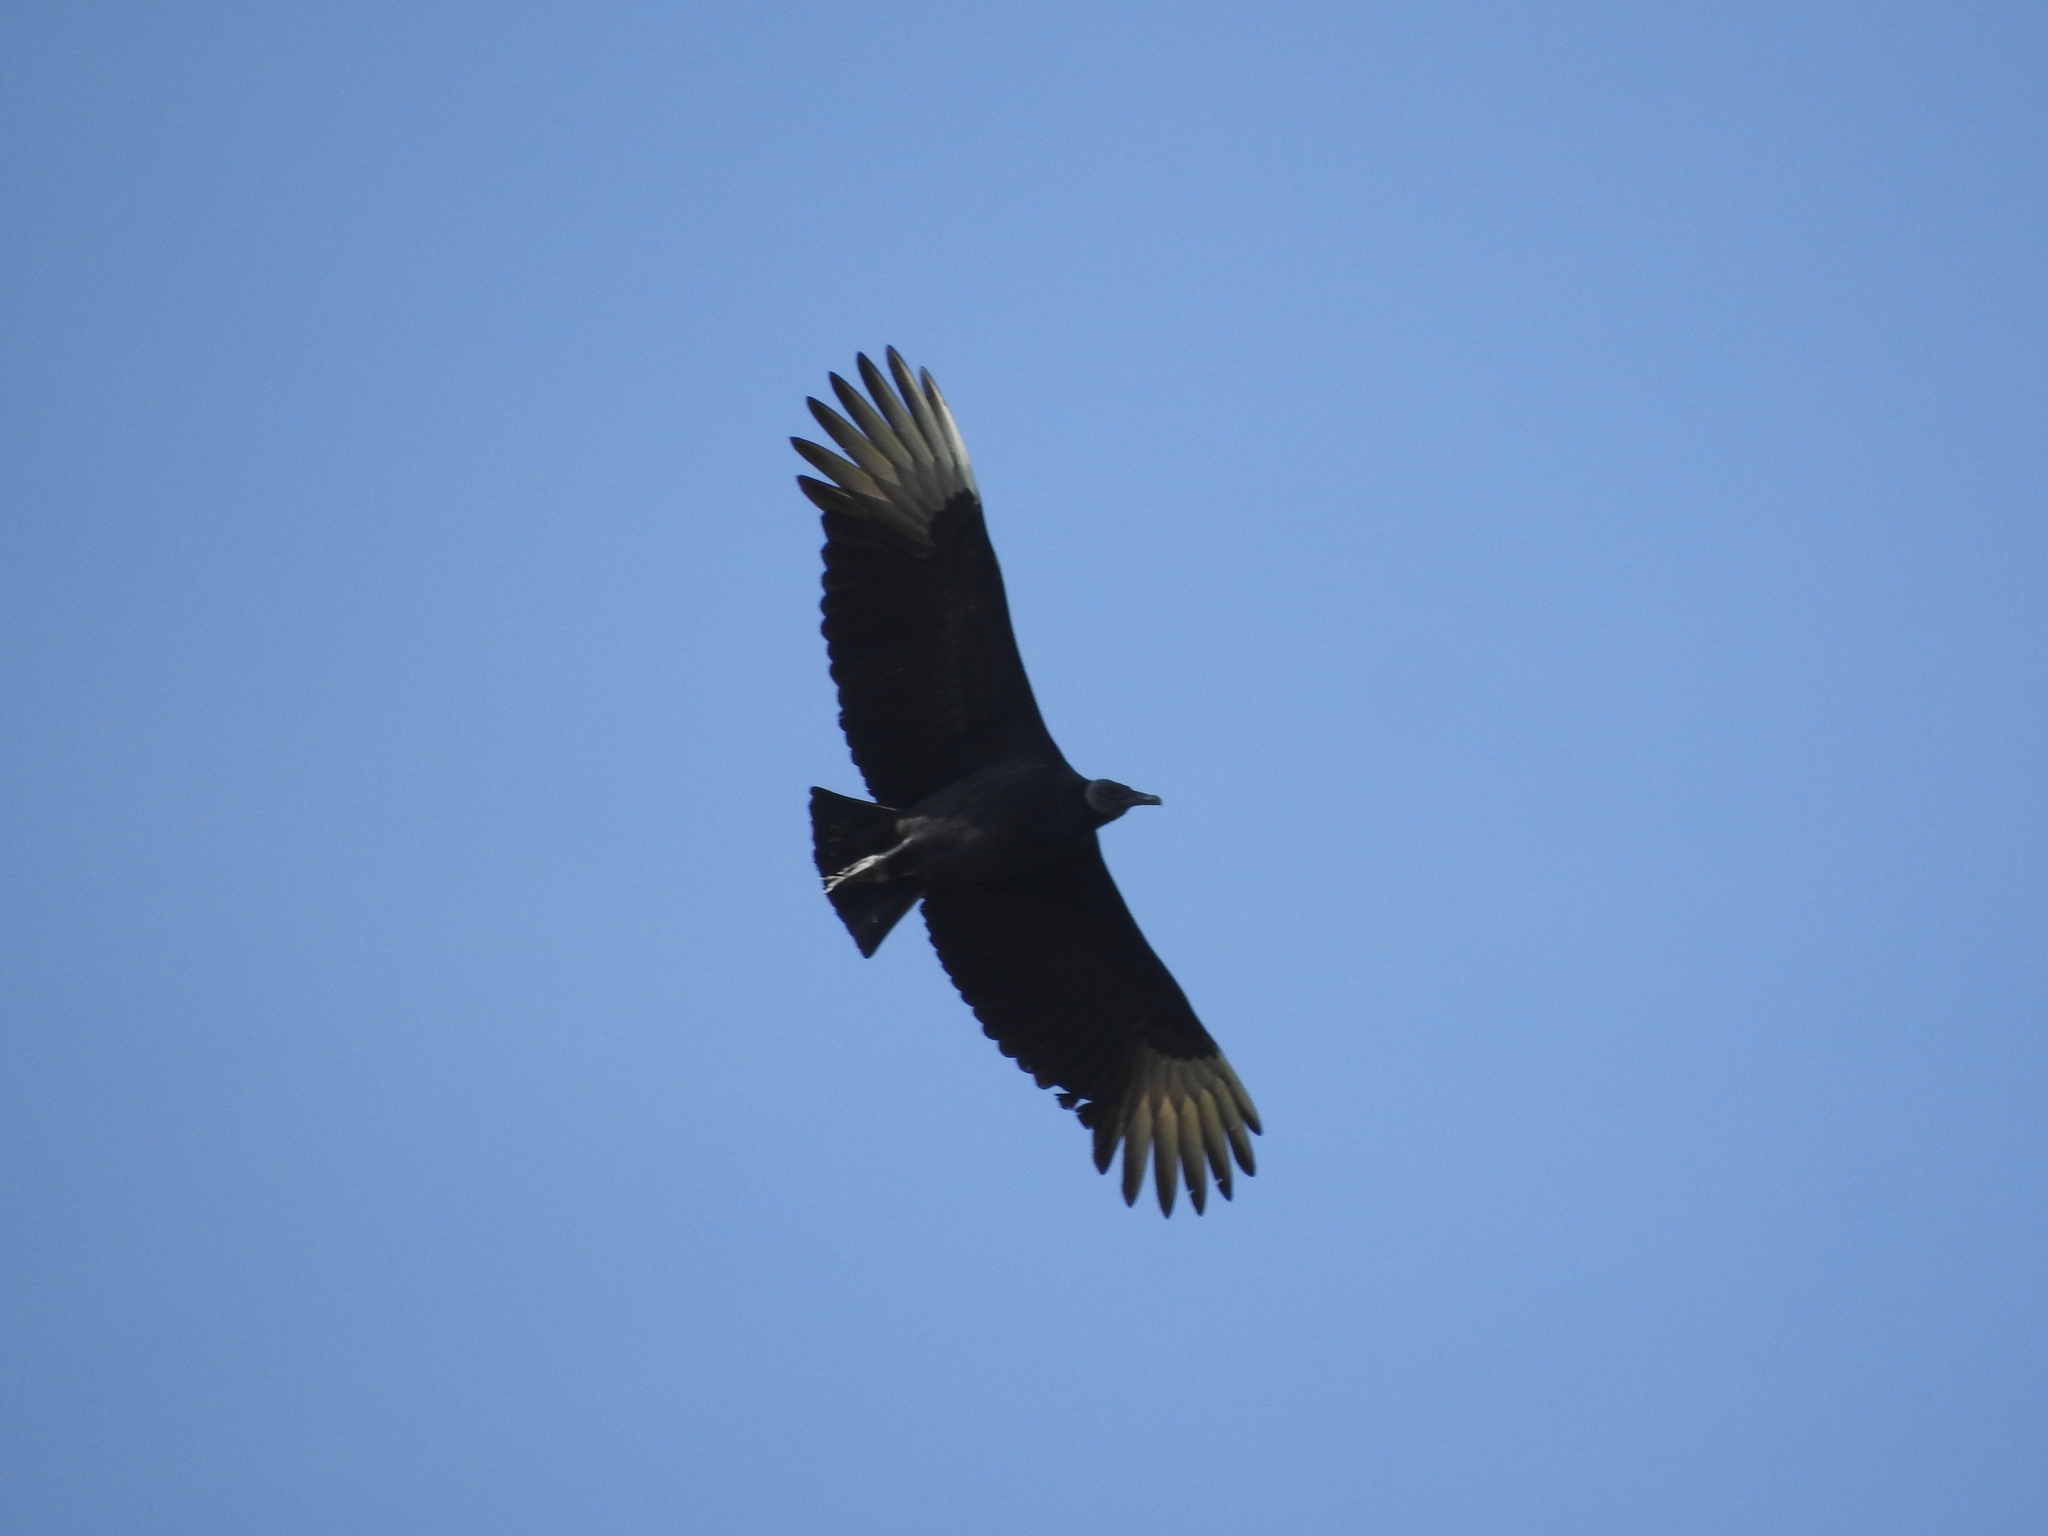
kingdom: Animalia
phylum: Chordata
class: Aves
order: Accipitriformes
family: Cathartidae
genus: Coragyps
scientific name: Coragyps atratus
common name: Black vulture
